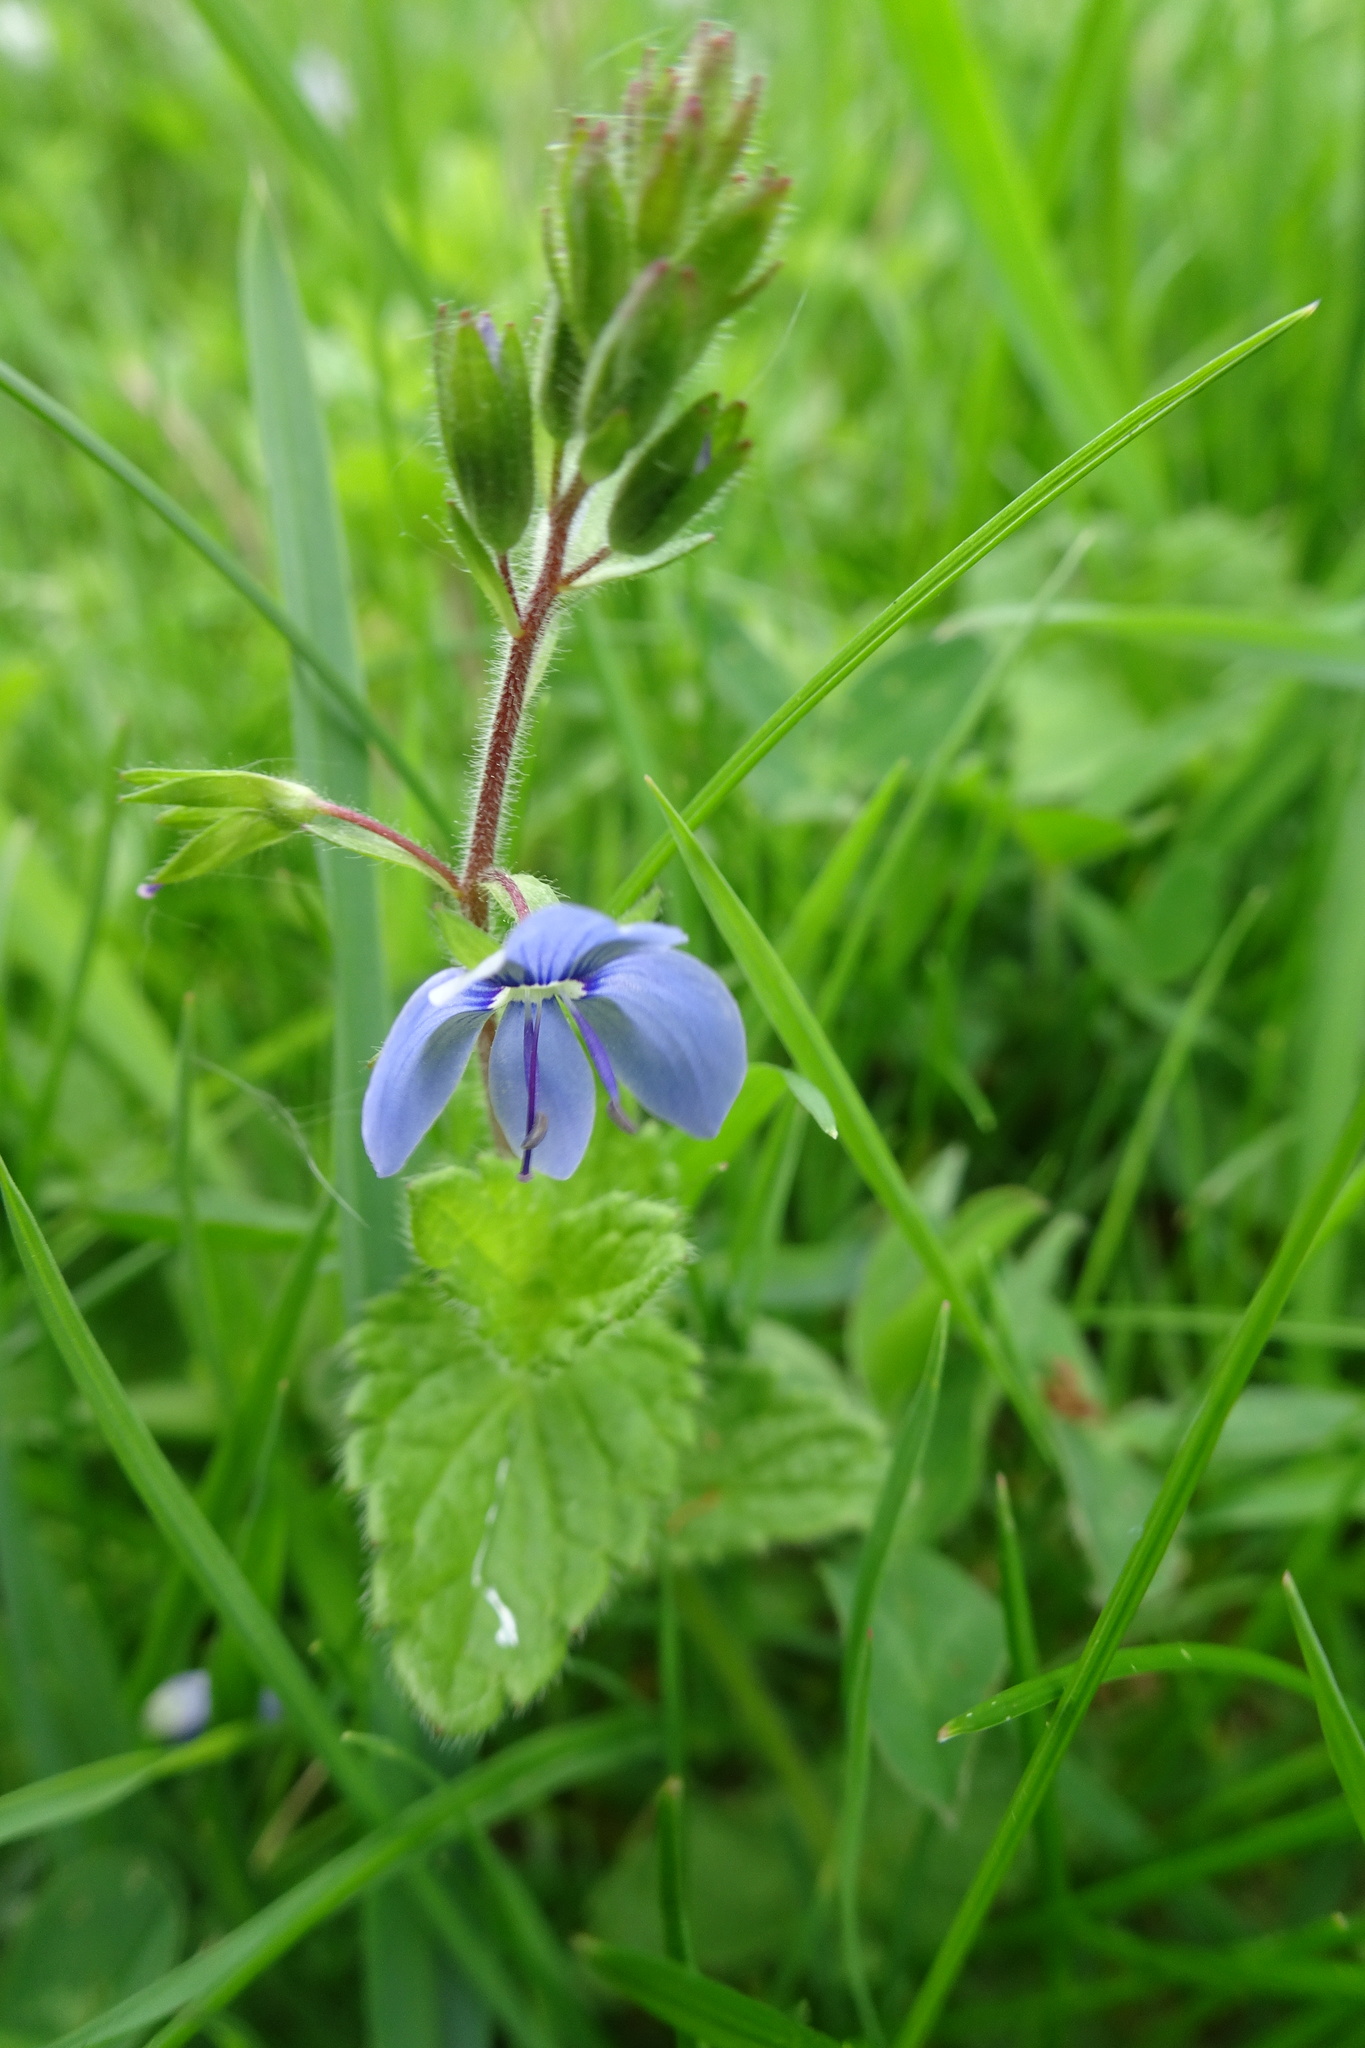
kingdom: Plantae
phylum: Tracheophyta
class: Magnoliopsida
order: Lamiales
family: Plantaginaceae
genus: Veronica
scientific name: Veronica chamaedrys
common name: Germander speedwell
